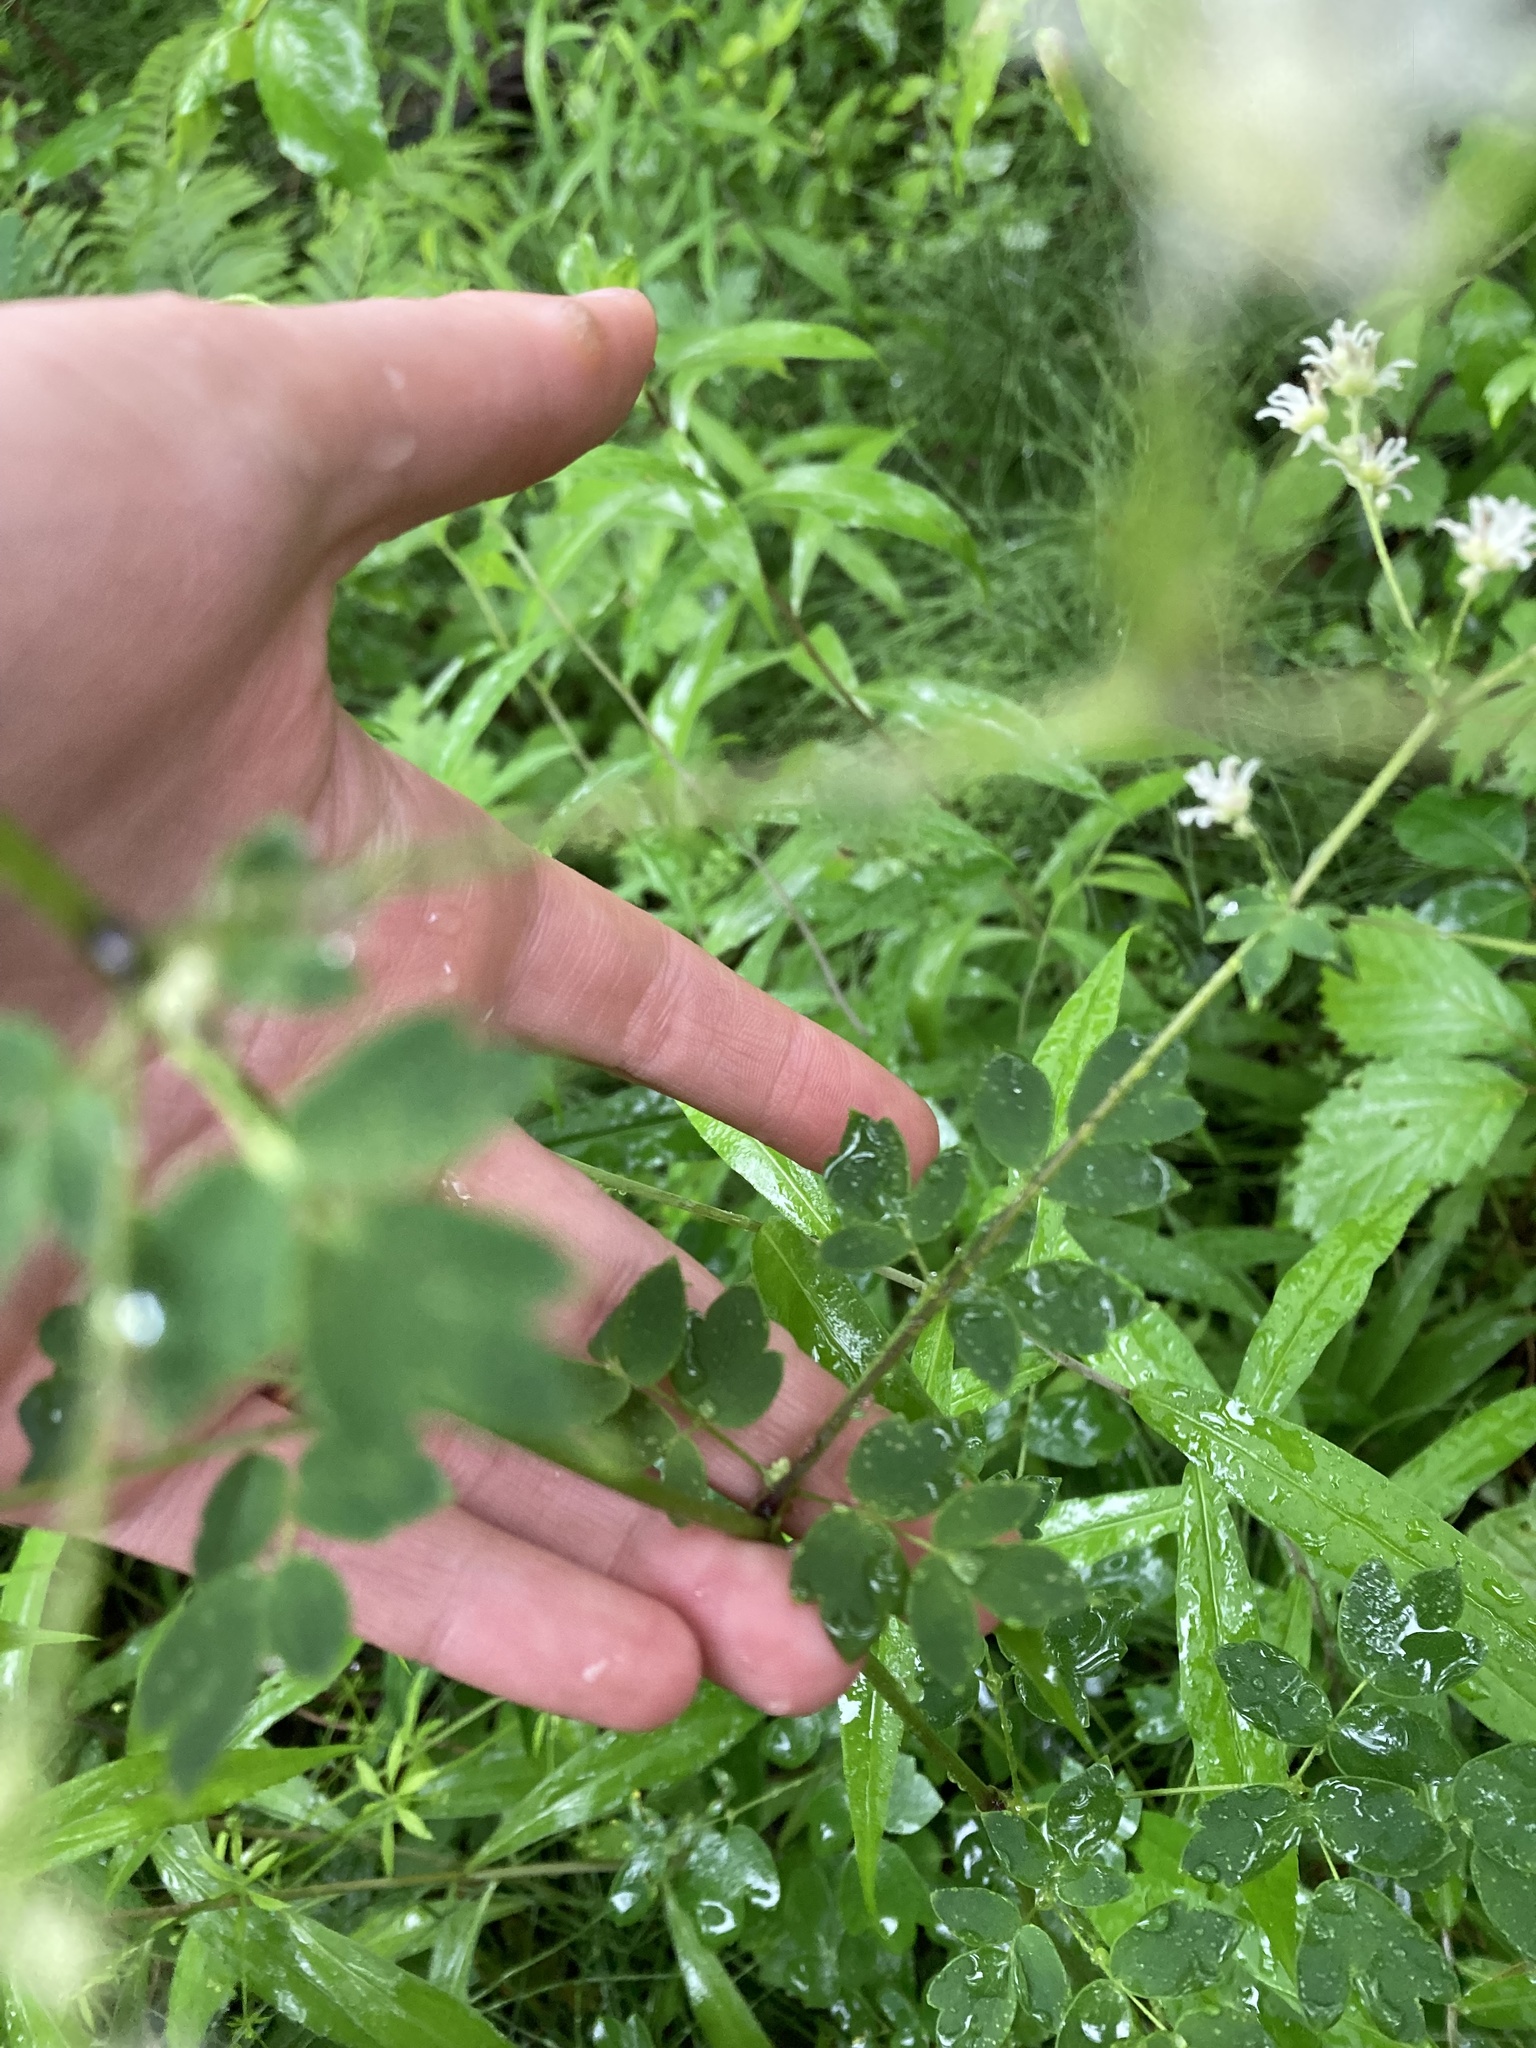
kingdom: Plantae
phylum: Tracheophyta
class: Magnoliopsida
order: Ranunculales
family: Ranunculaceae
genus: Thalictrum
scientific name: Thalictrum pubescens
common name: King-of-the-meadow
